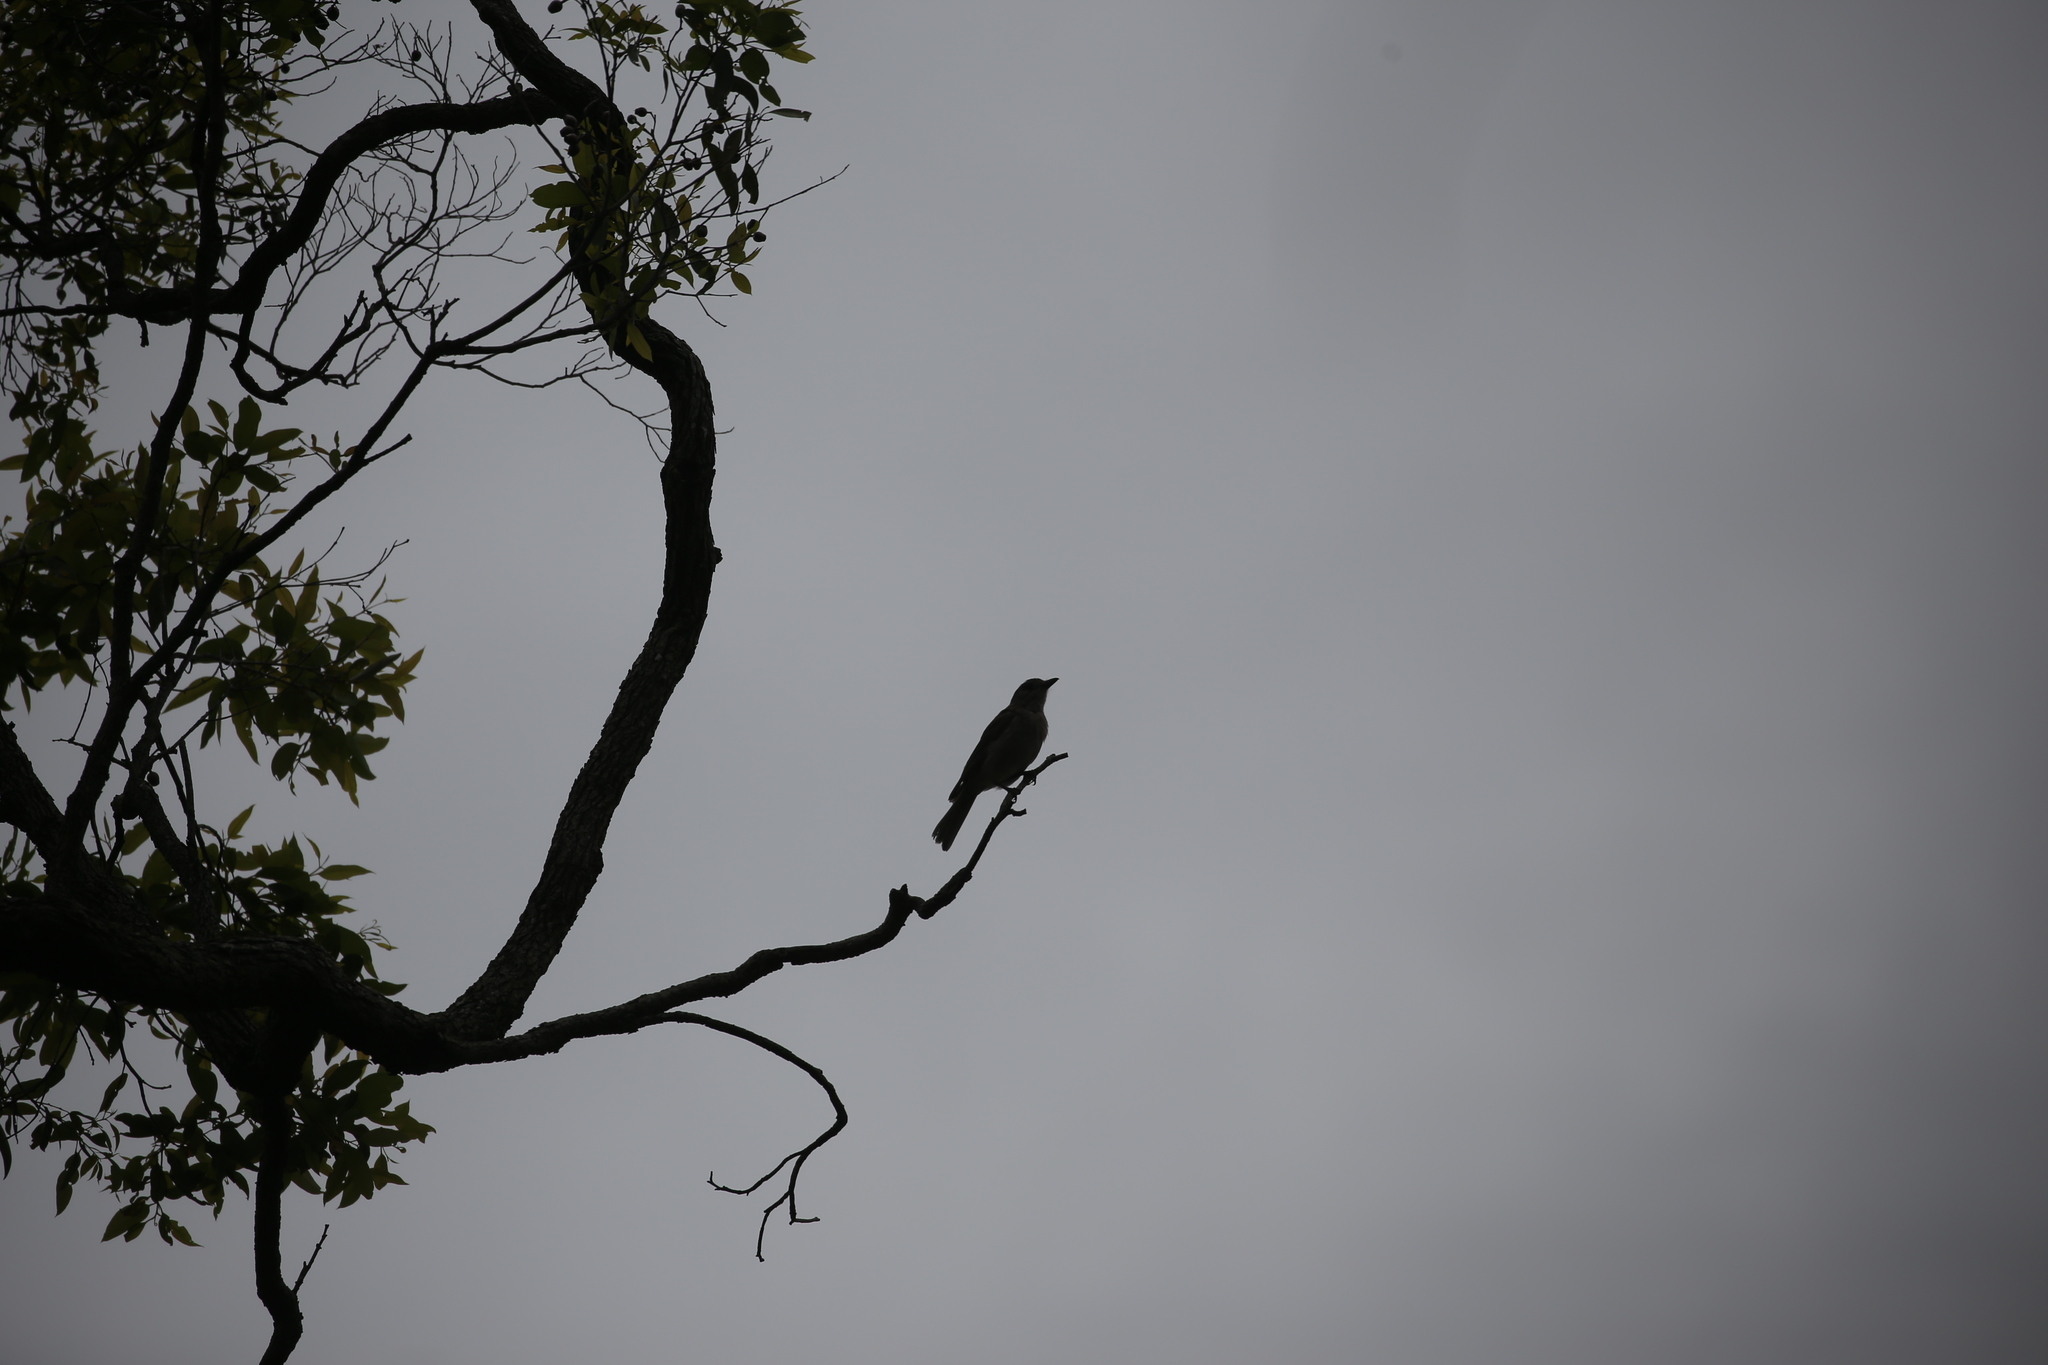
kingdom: Animalia
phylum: Chordata
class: Aves
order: Passeriformes
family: Pachycephalidae
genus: Colluricincla
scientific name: Colluricincla harmonica
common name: Grey shrikethrush
